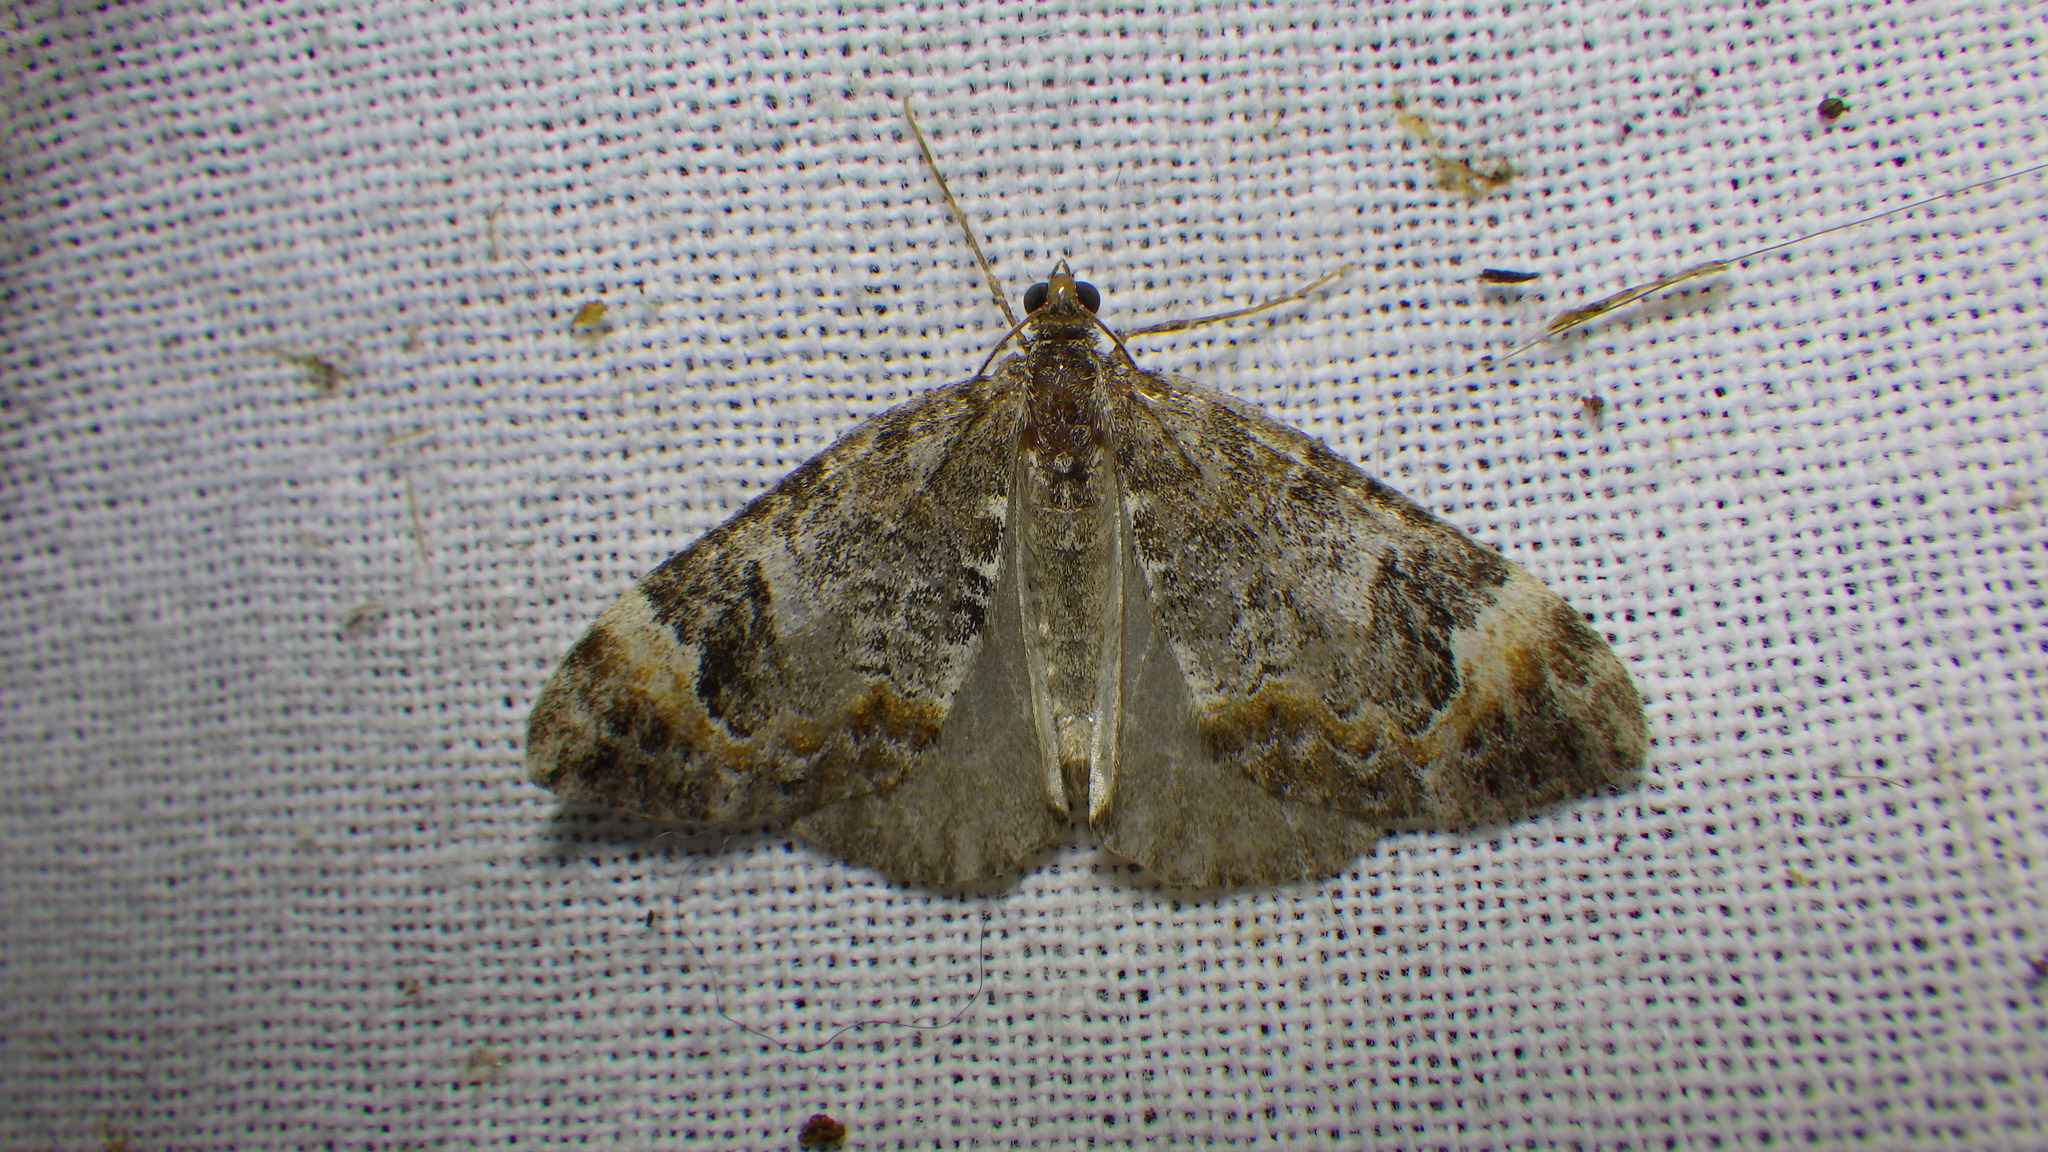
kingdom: Animalia
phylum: Arthropoda
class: Insecta
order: Lepidoptera
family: Geometridae
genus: Dysstroma
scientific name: Dysstroma truncata
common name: Common marbled carpet
